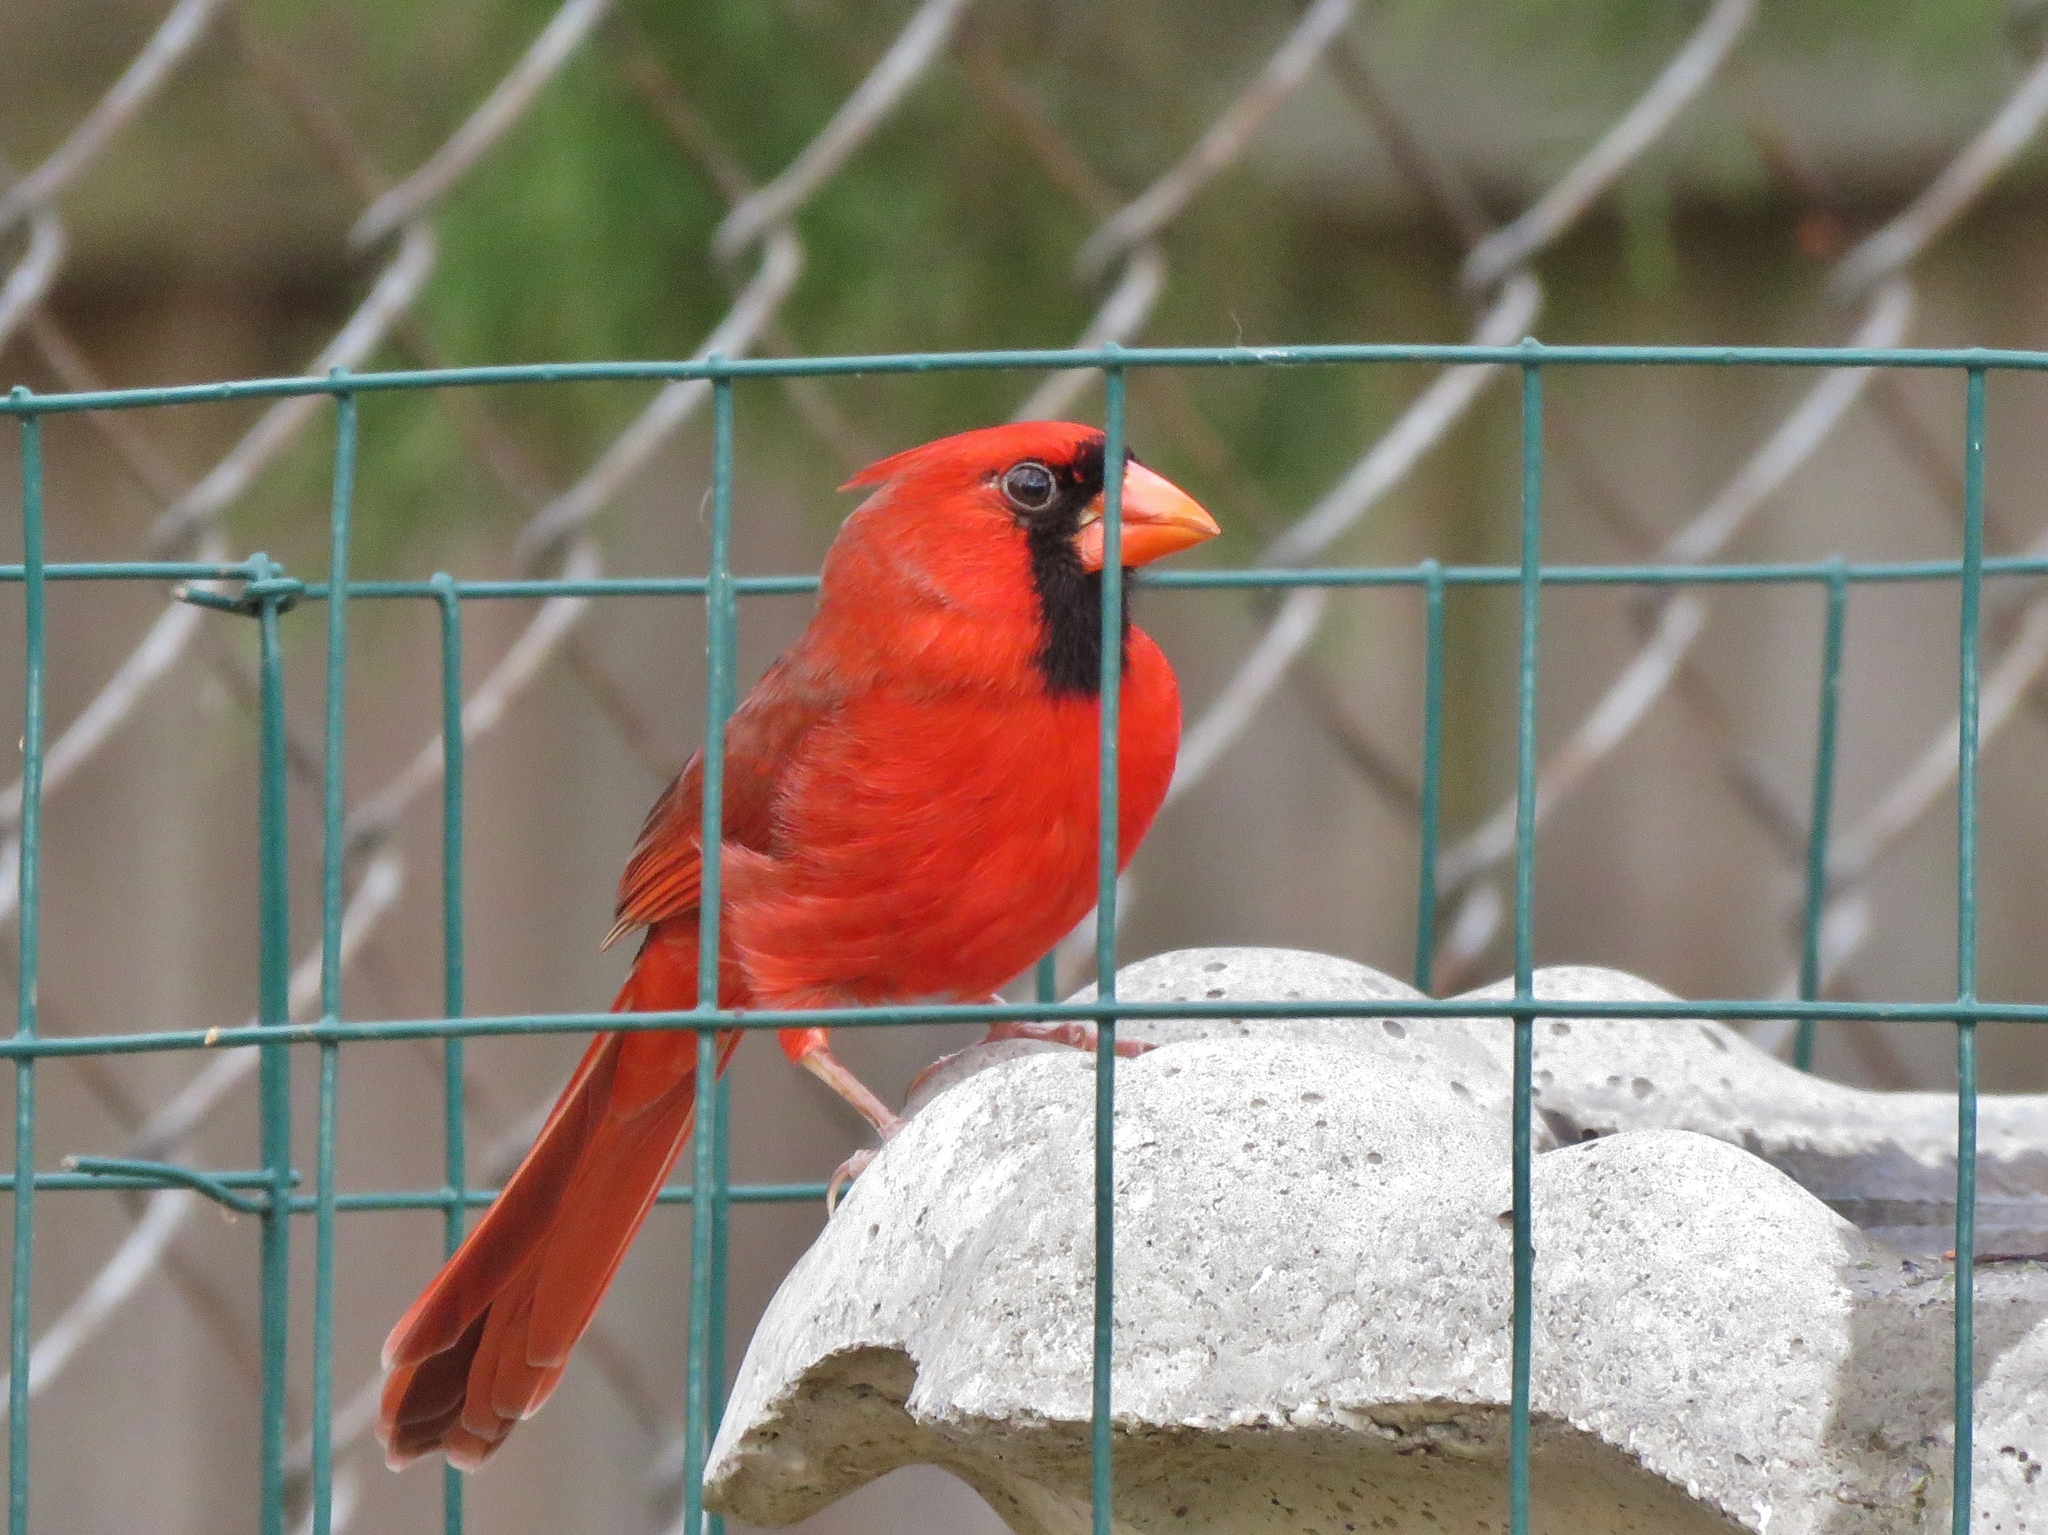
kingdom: Animalia
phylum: Chordata
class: Aves
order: Passeriformes
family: Cardinalidae
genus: Cardinalis
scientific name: Cardinalis cardinalis
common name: Northern cardinal
